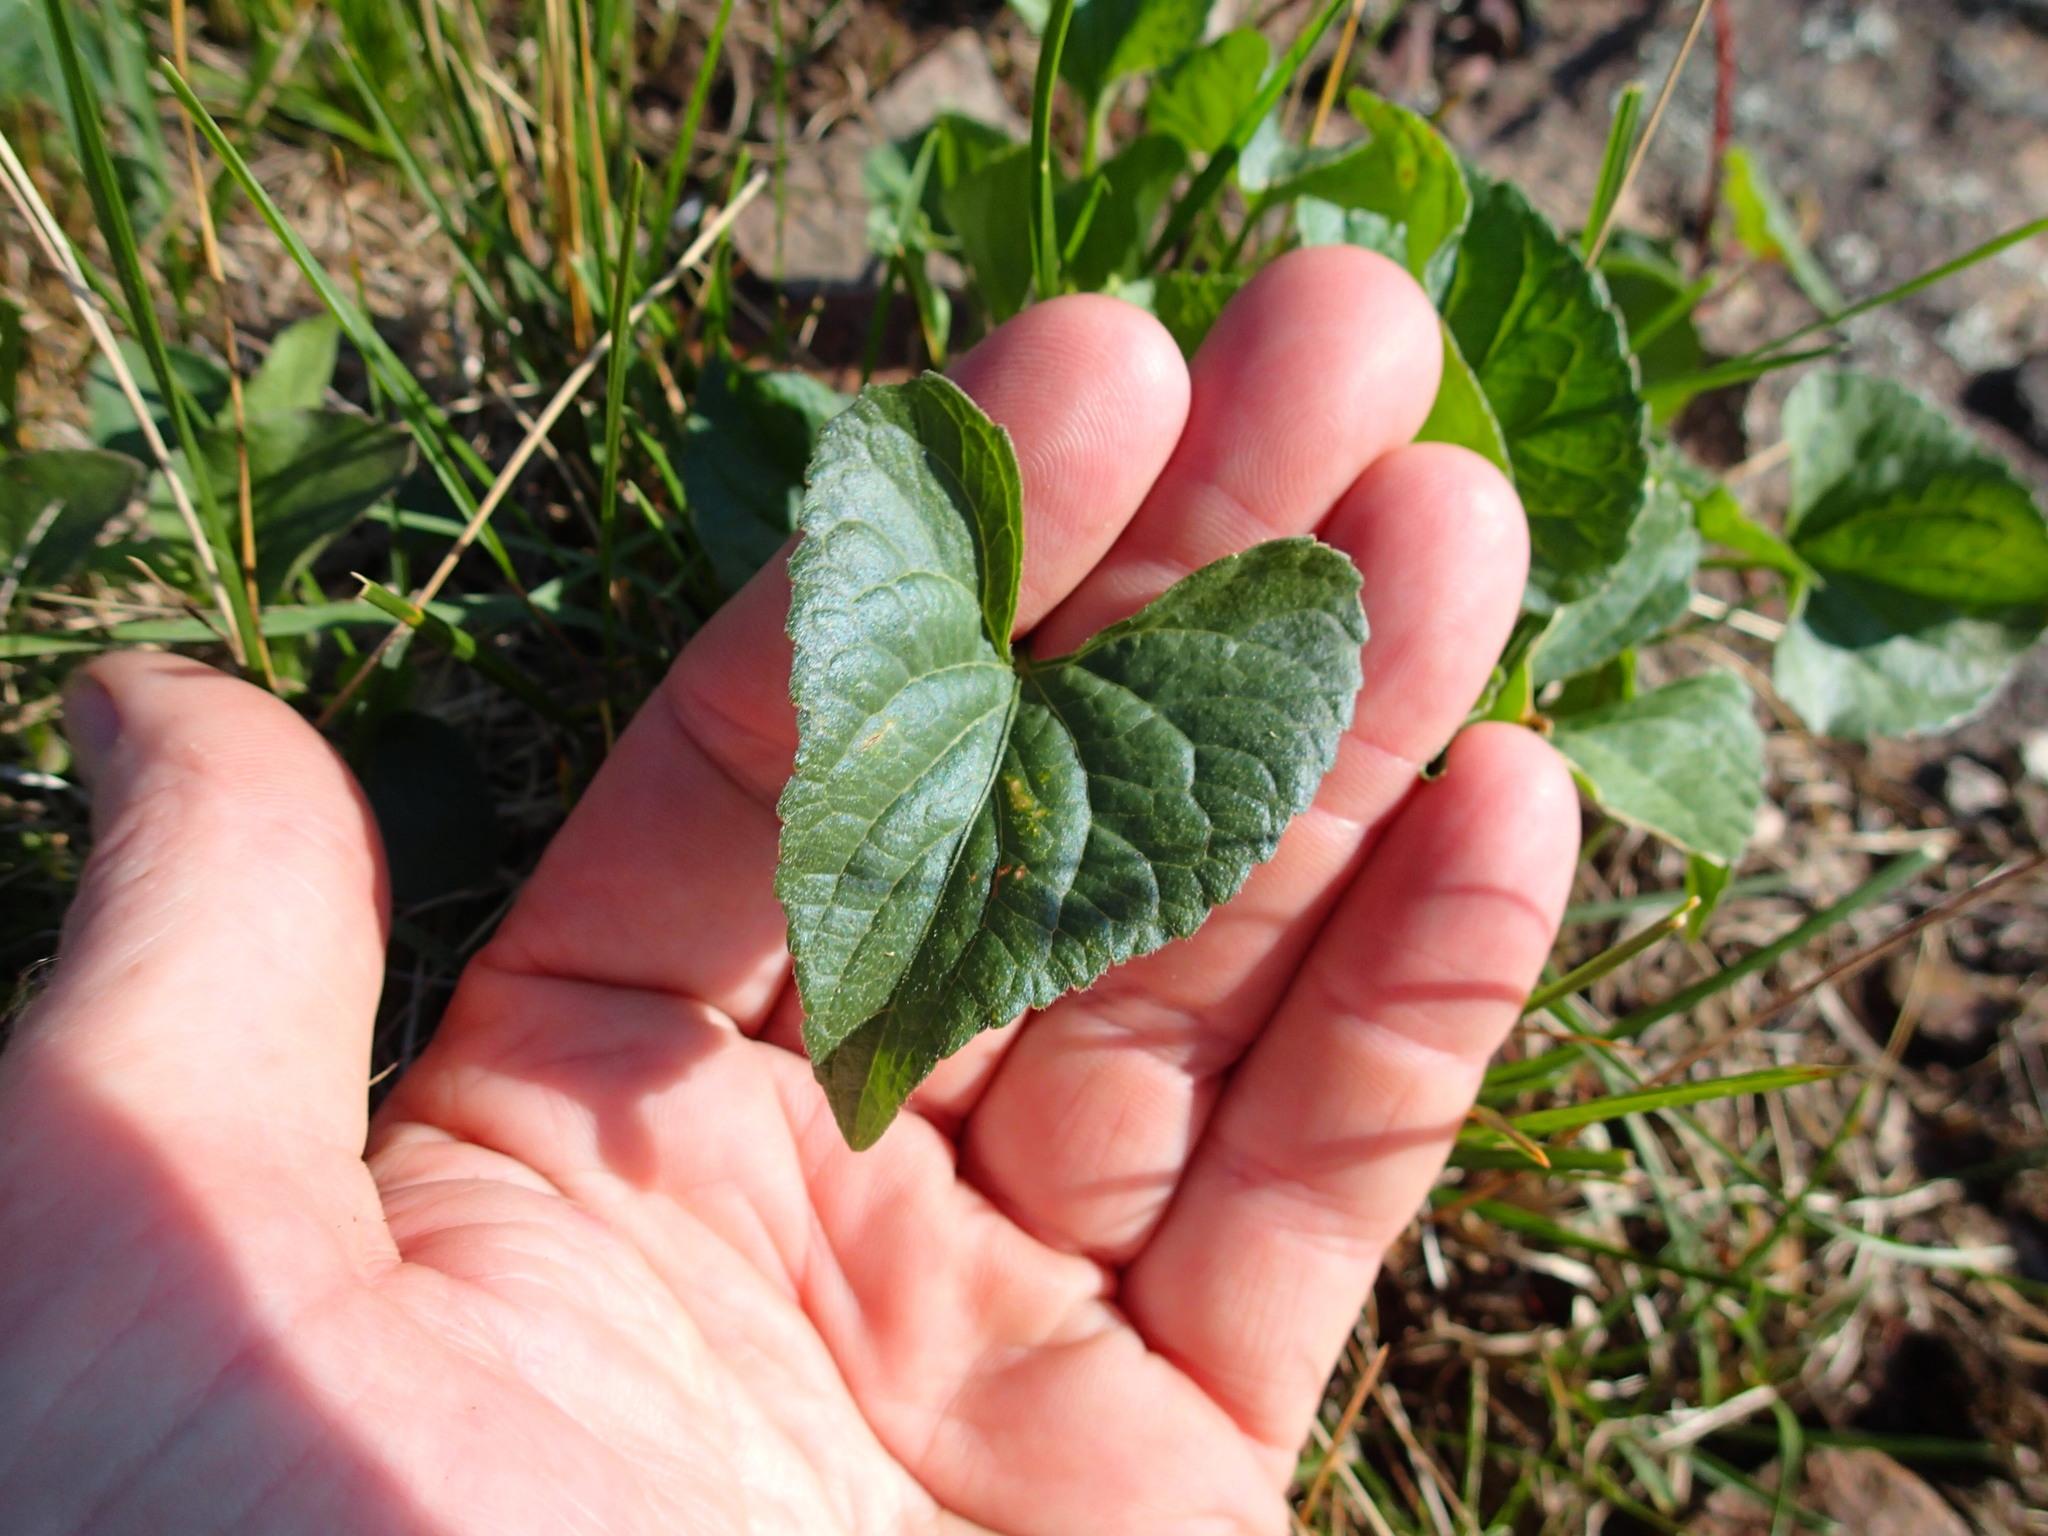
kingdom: Plantae
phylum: Tracheophyta
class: Magnoliopsida
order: Malpighiales
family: Violaceae
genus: Viola
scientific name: Viola novae-angliae
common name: New england blue violet
